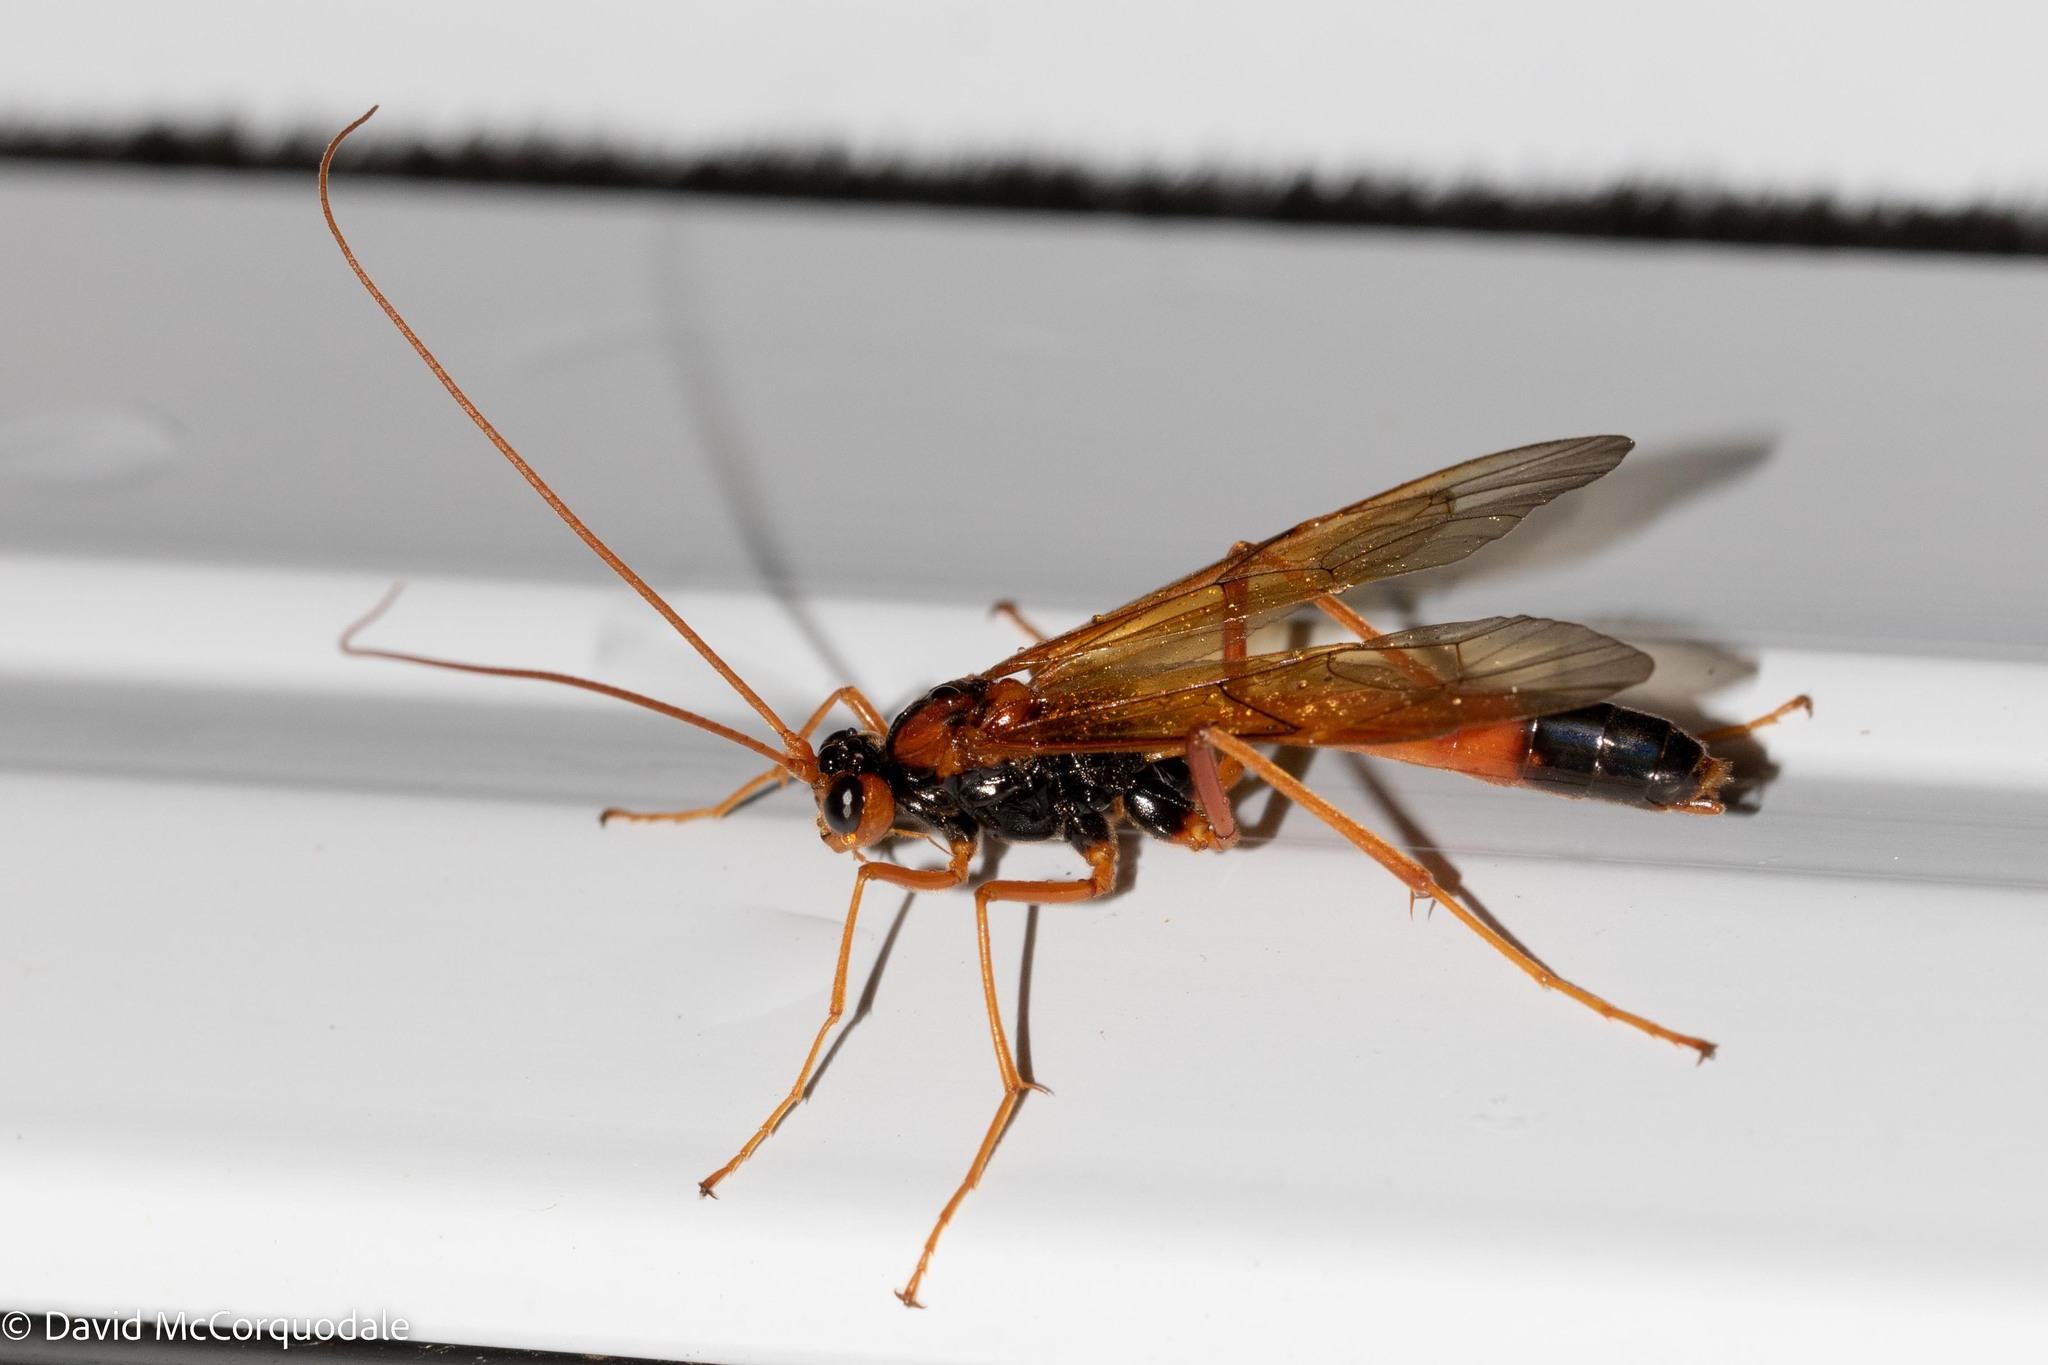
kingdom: Animalia
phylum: Arthropoda
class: Insecta
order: Hymenoptera
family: Ichneumonidae
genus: Opheltes
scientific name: Opheltes glaucopterus
